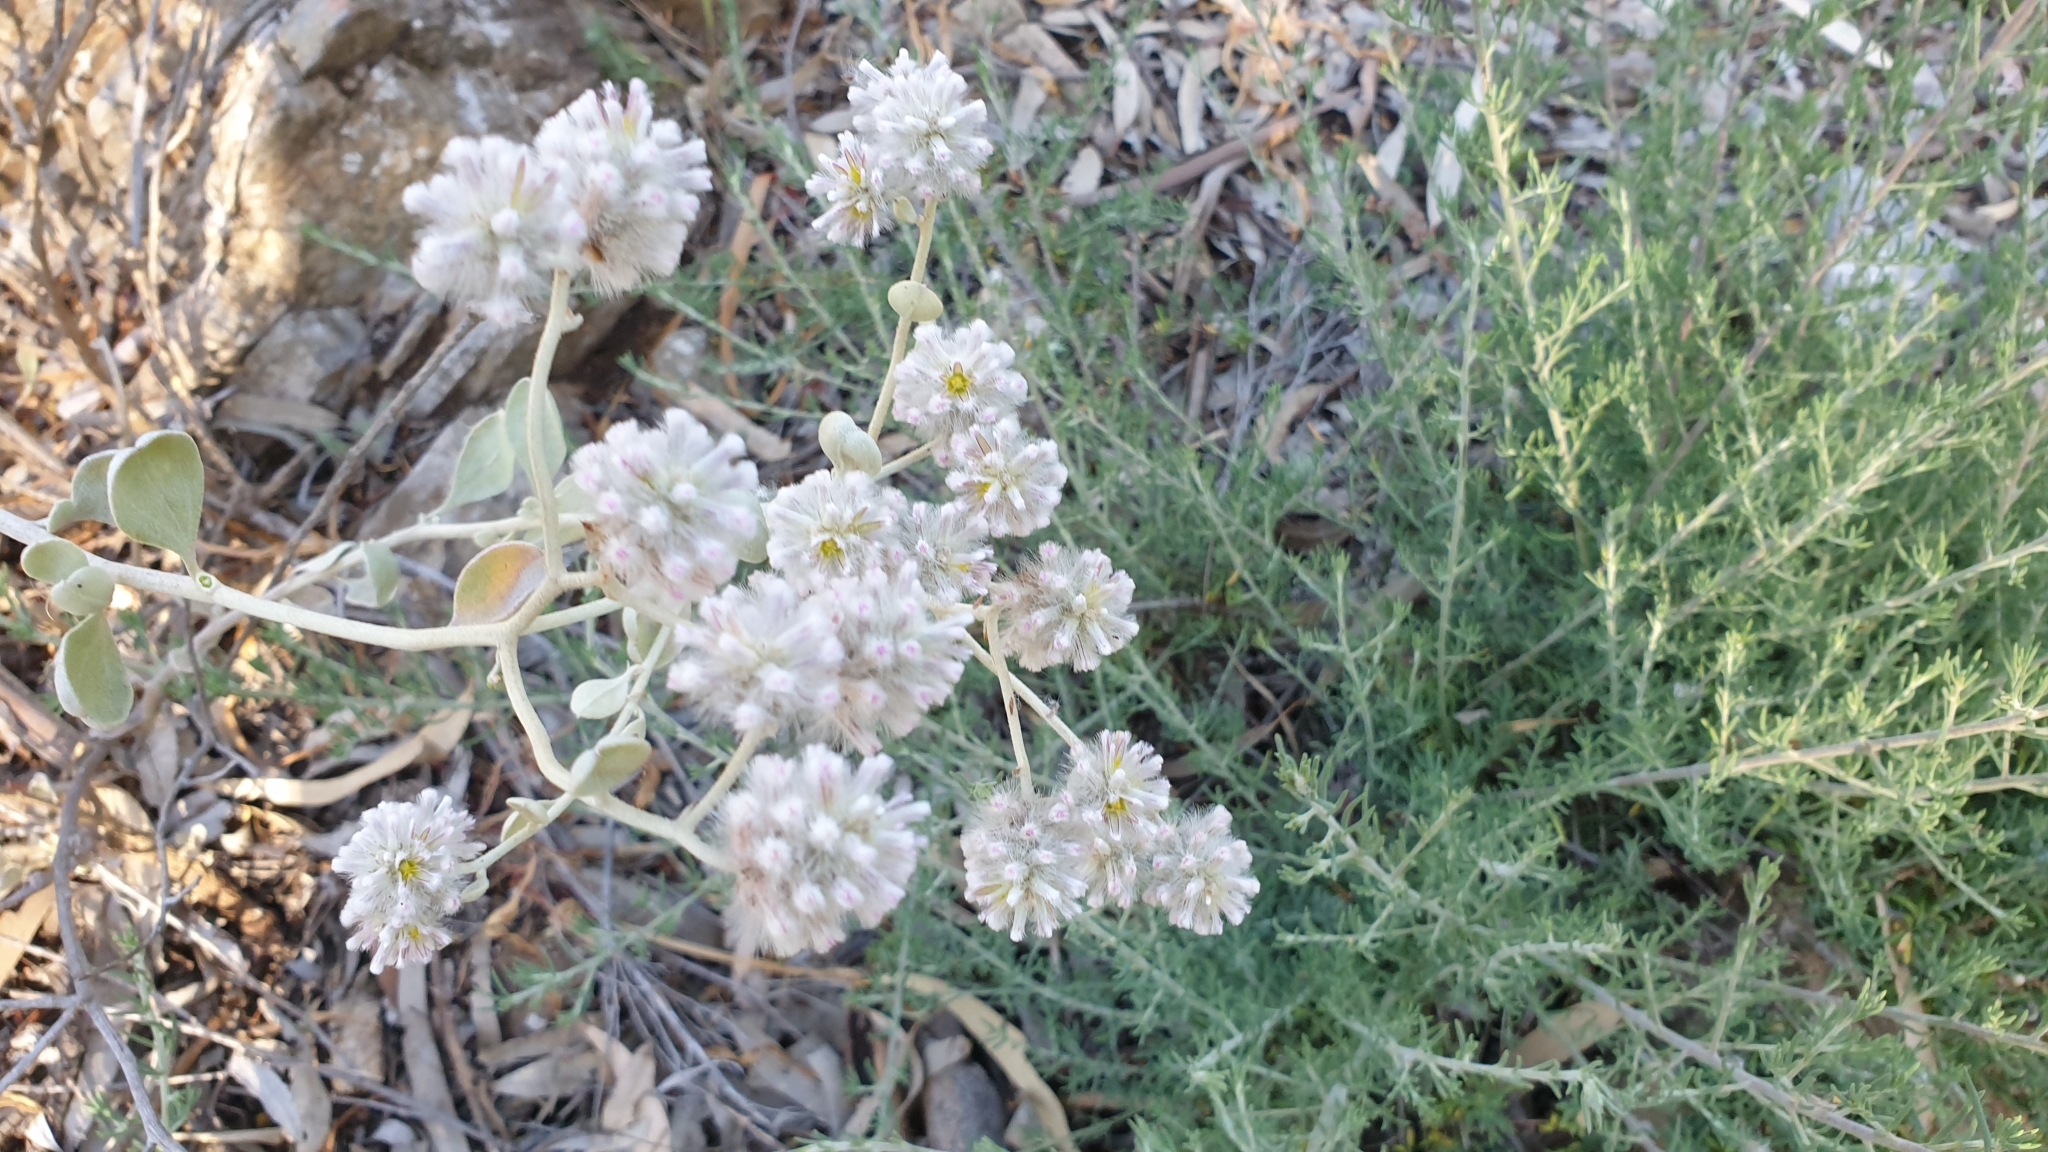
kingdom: Plantae
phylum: Tracheophyta
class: Magnoliopsida
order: Caryophyllales
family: Amaranthaceae
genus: Ptilotus
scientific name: Ptilotus obovatus
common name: Cottonbush
